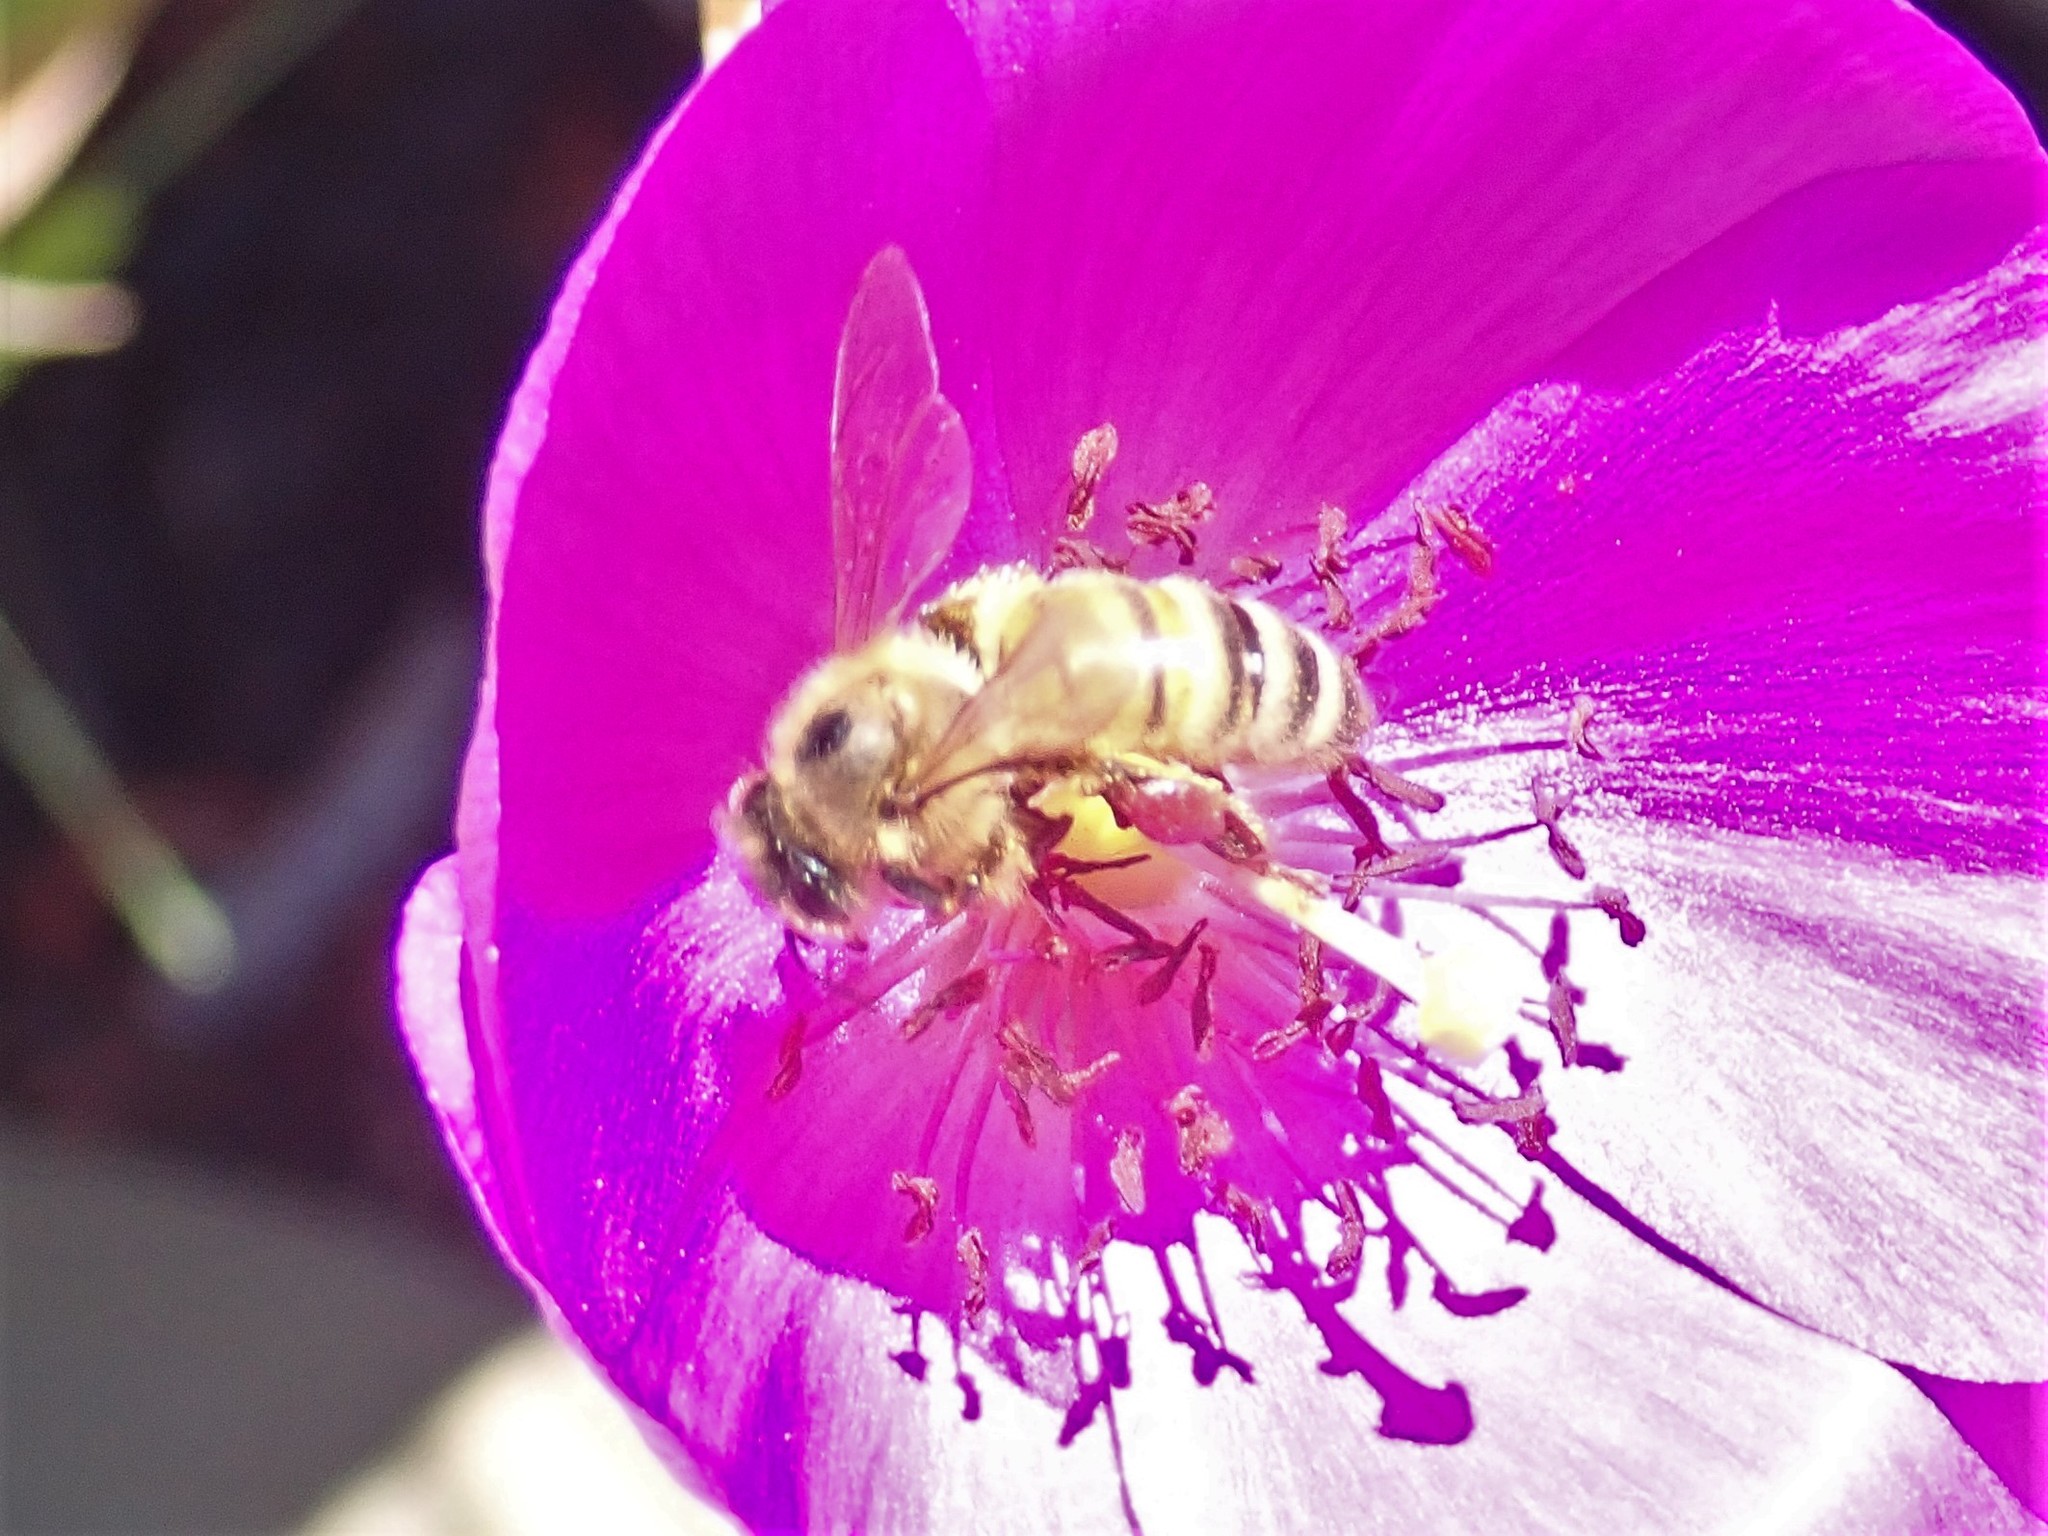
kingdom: Animalia
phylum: Arthropoda
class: Insecta
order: Hymenoptera
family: Apidae
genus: Apis
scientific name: Apis mellifera
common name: Honey bee
